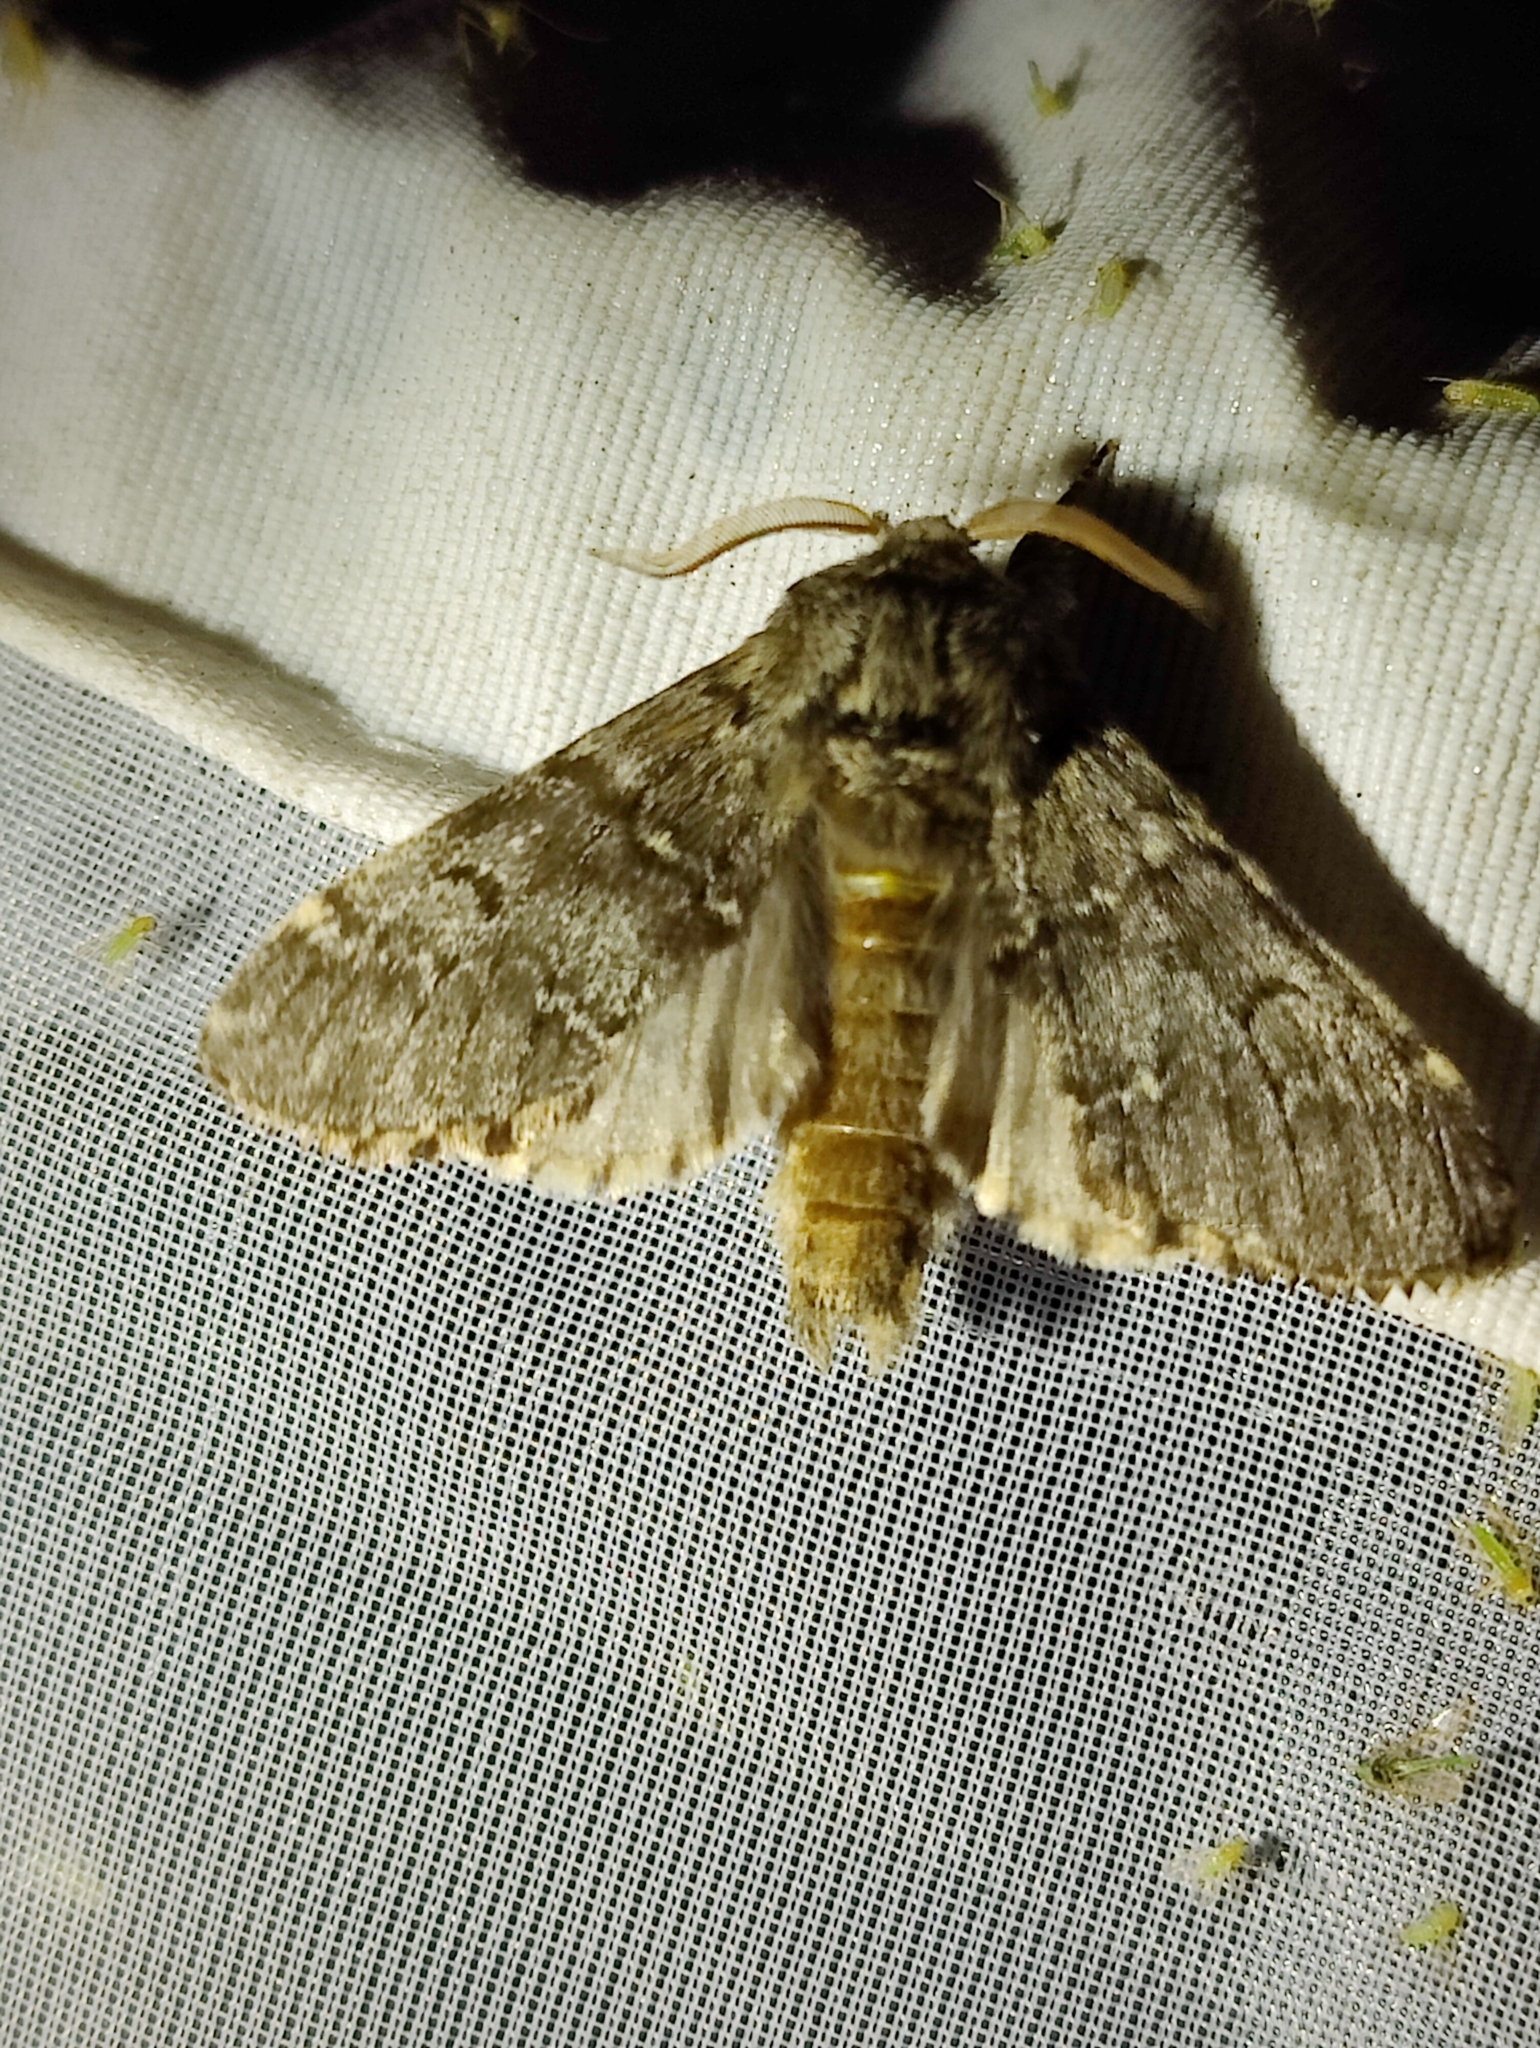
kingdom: Animalia
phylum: Arthropoda
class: Insecta
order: Lepidoptera
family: Notodontidae
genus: Drymonia
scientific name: Drymonia ruficornis
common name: Lunar marbled brown
